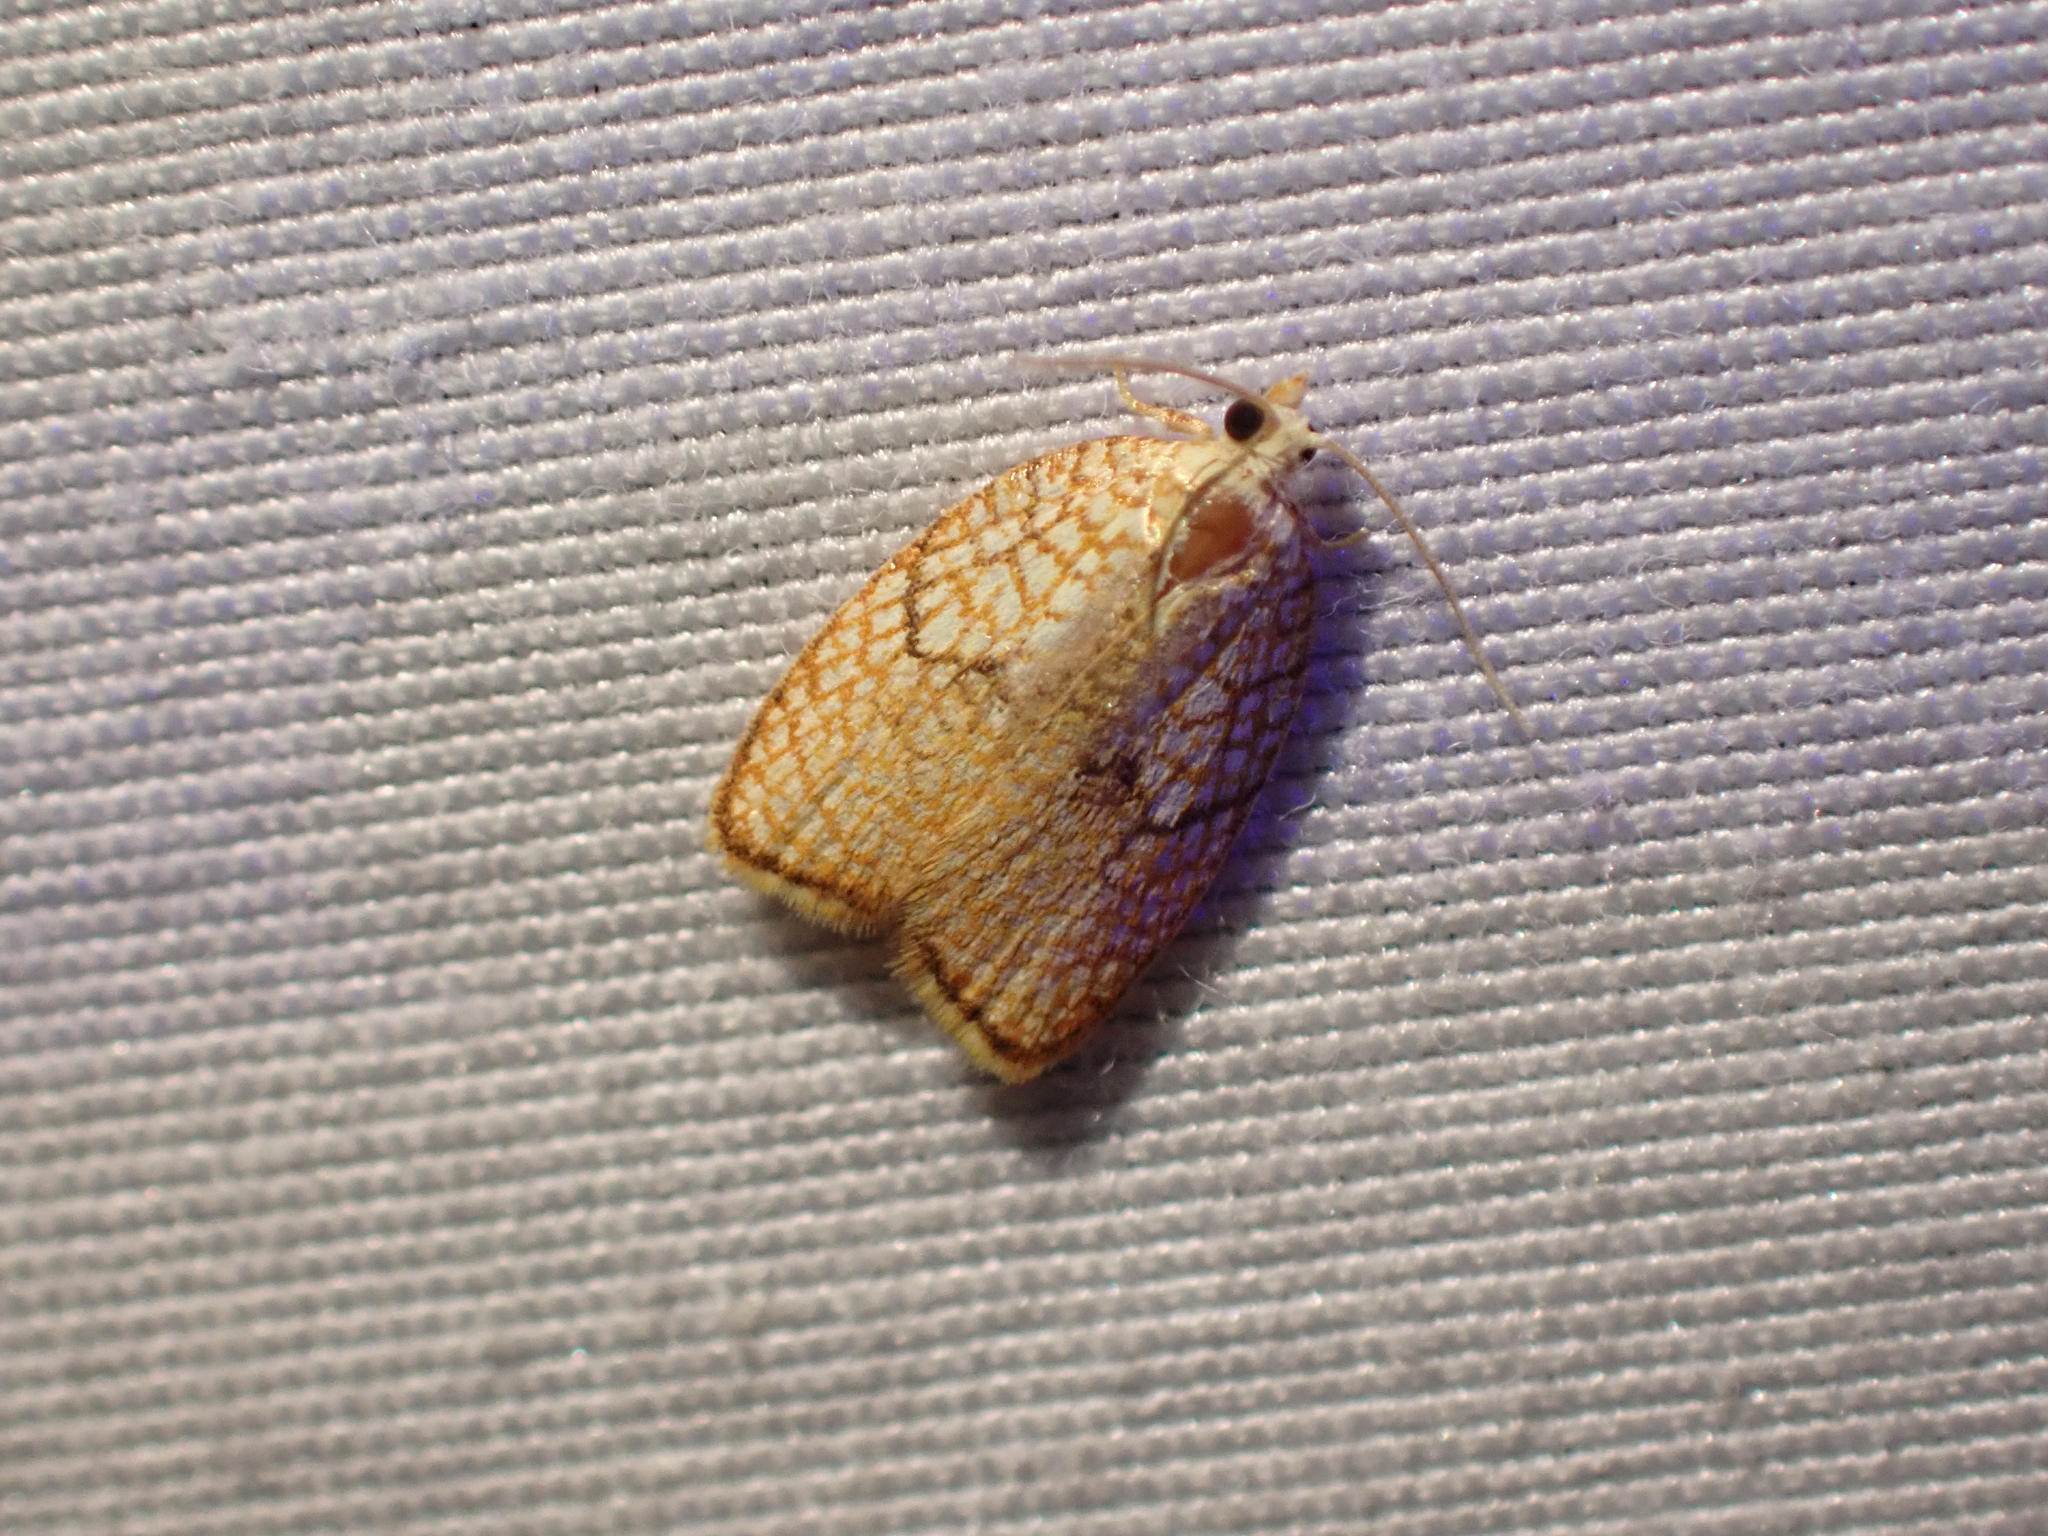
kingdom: Animalia
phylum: Arthropoda
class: Insecta
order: Lepidoptera
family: Tortricidae
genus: Acleris
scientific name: Acleris forsskaleana
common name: Maple button
